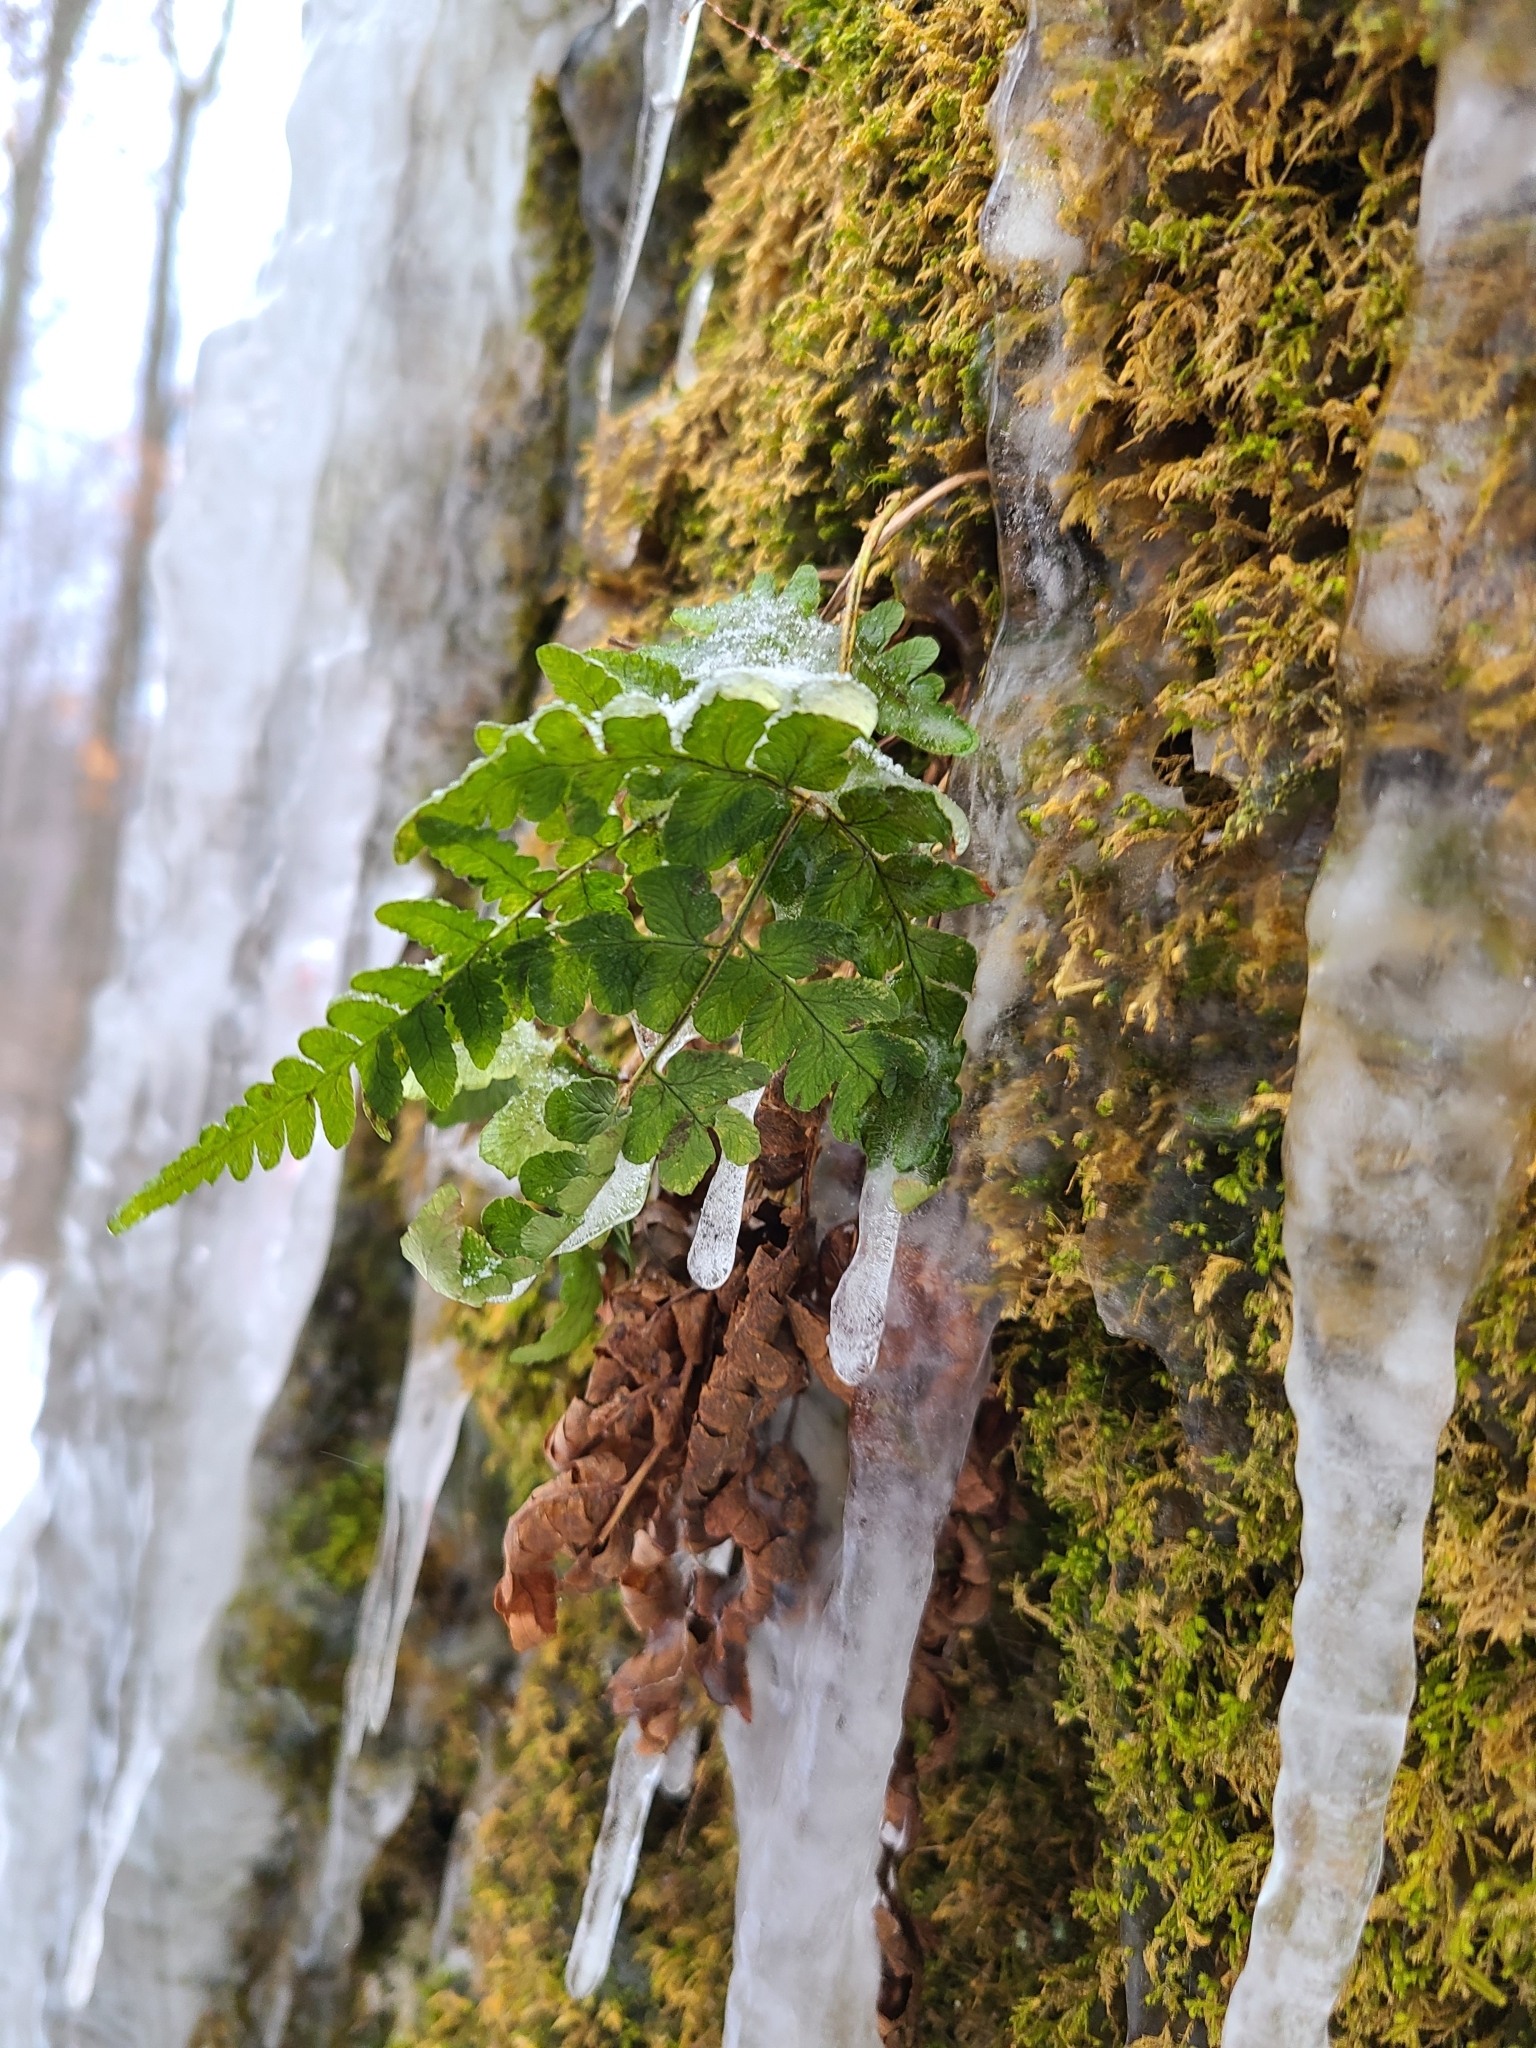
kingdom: Plantae
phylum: Tracheophyta
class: Polypodiopsida
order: Polypodiales
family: Dryopteridaceae
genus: Dryopteris
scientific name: Dryopteris marginalis
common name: Marginal wood fern
